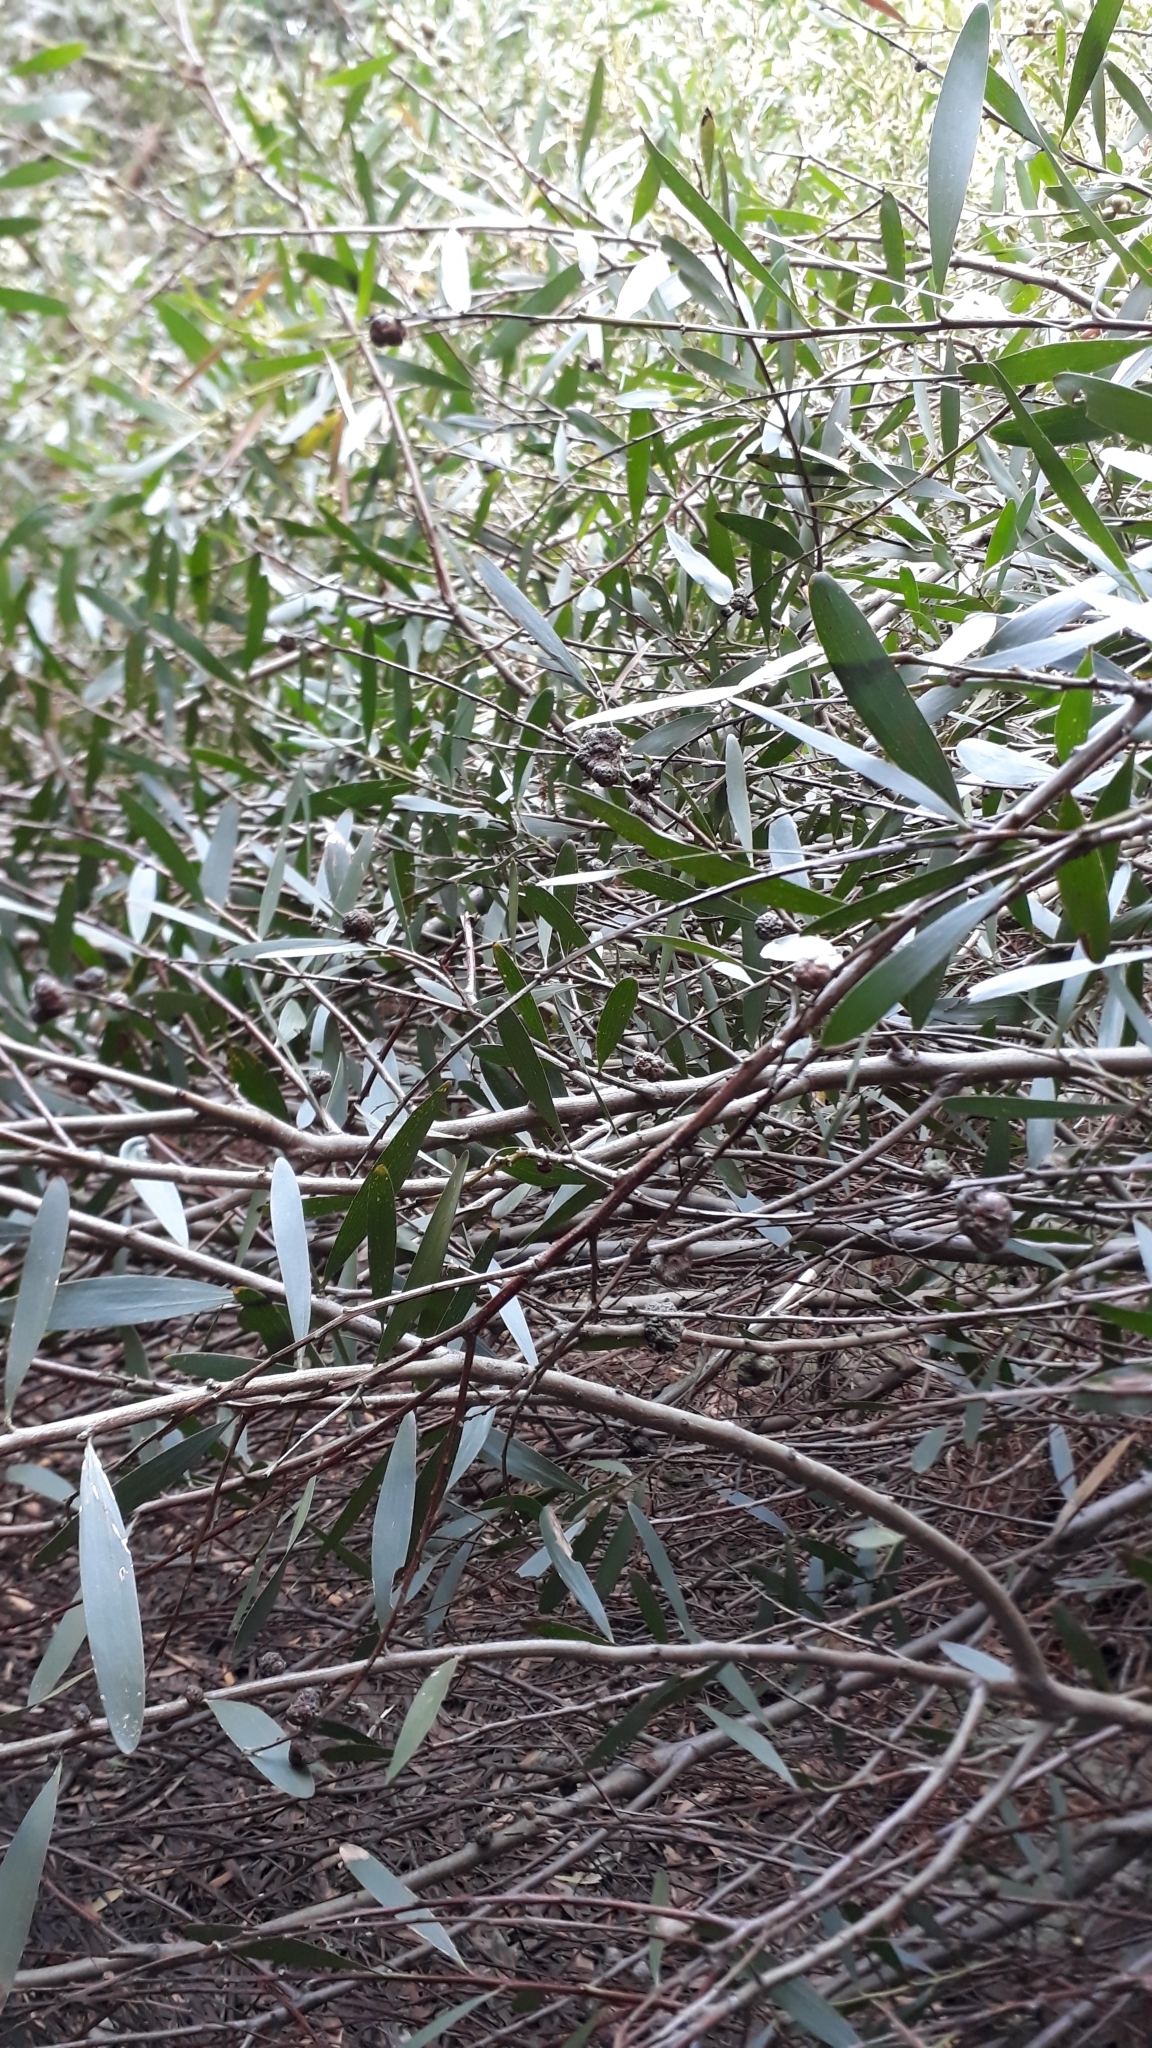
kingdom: Plantae
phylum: Tracheophyta
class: Magnoliopsida
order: Fabales
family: Fabaceae
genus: Acacia
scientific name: Acacia longifolia
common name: Sydney golden wattle
